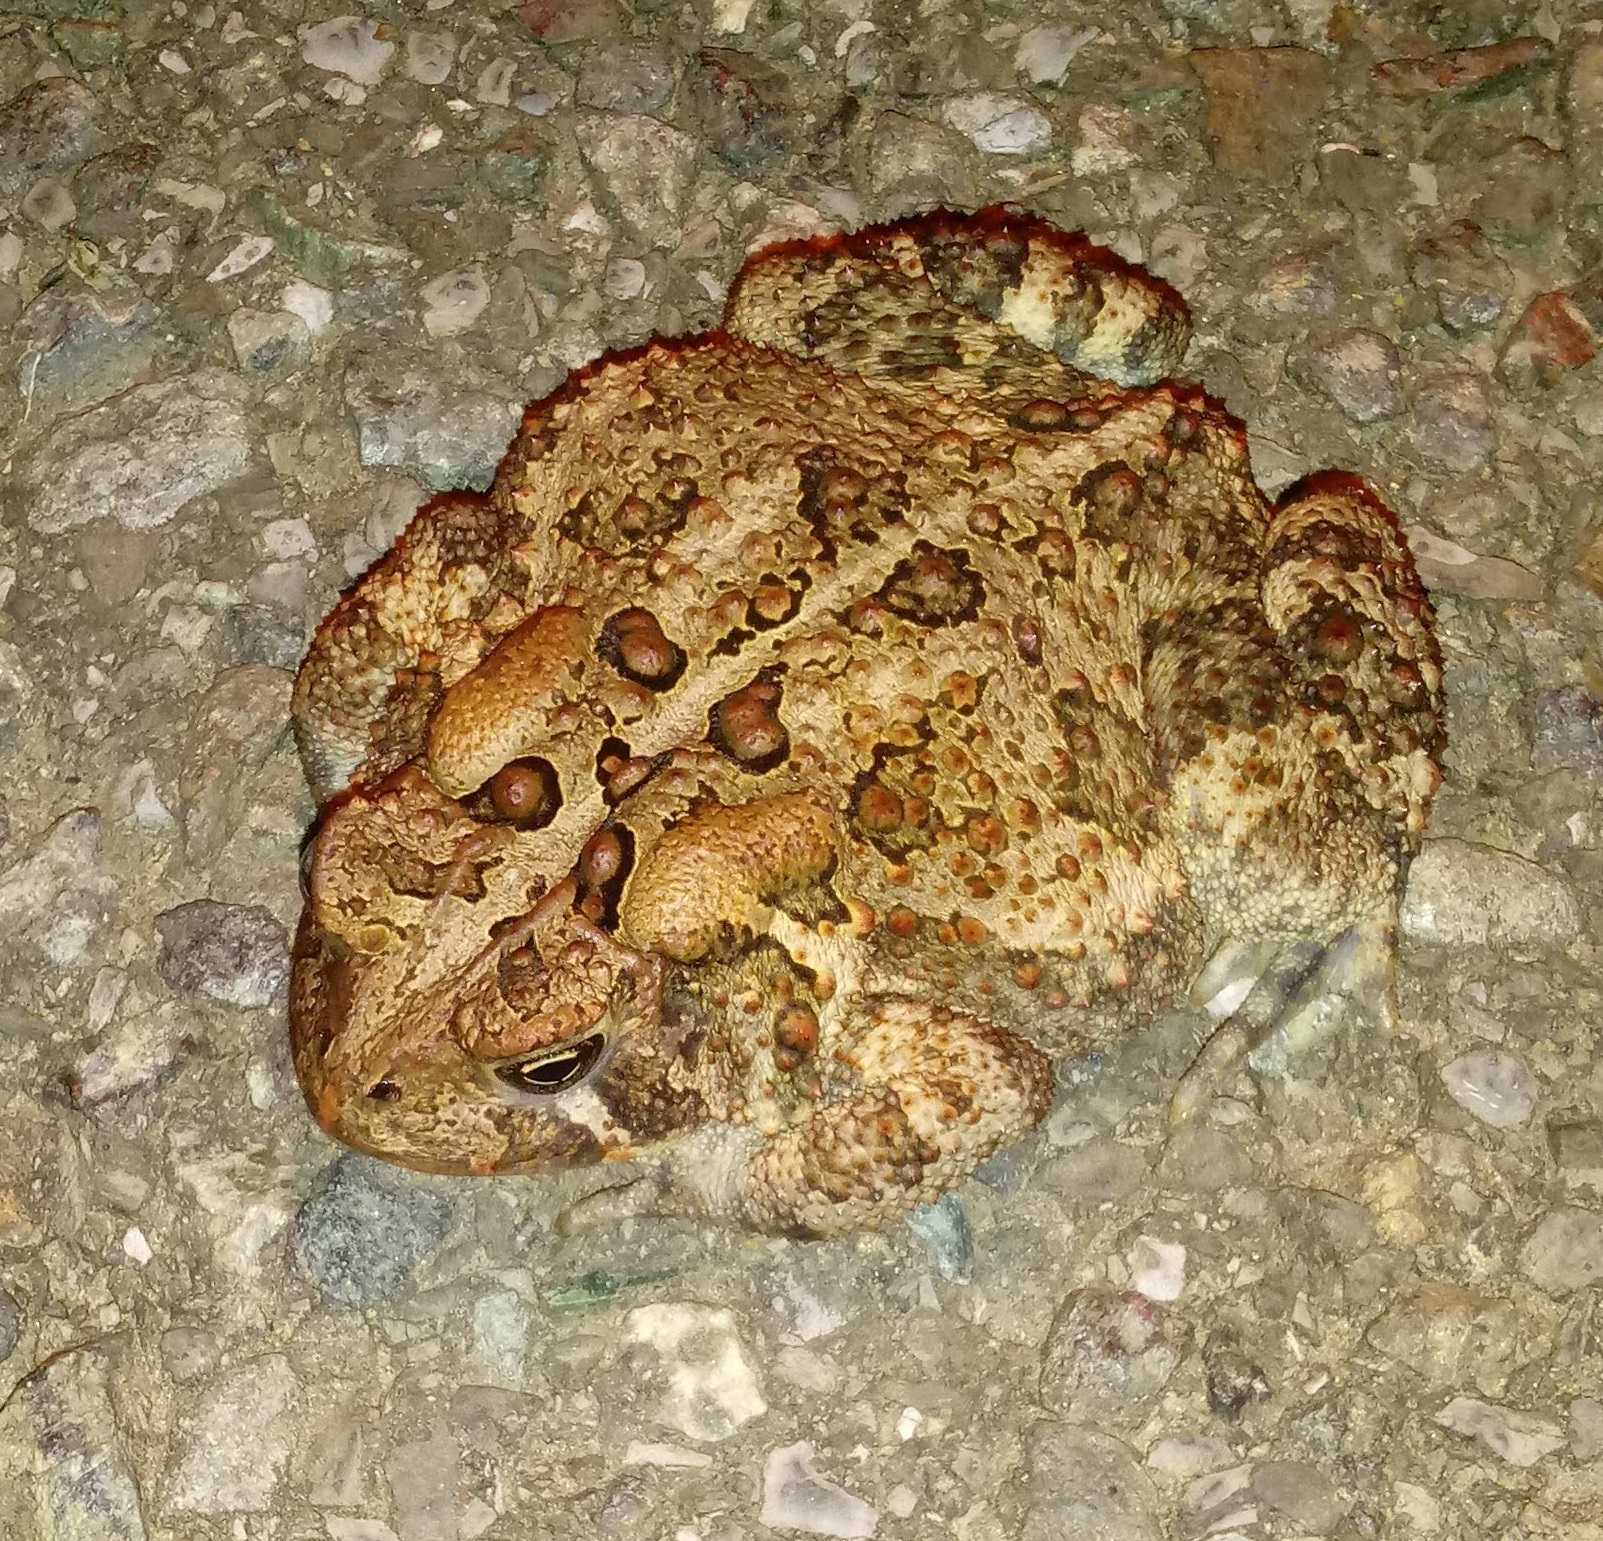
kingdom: Animalia
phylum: Chordata
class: Amphibia
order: Anura
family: Bufonidae
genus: Anaxyrus
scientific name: Anaxyrus americanus
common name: American toad
